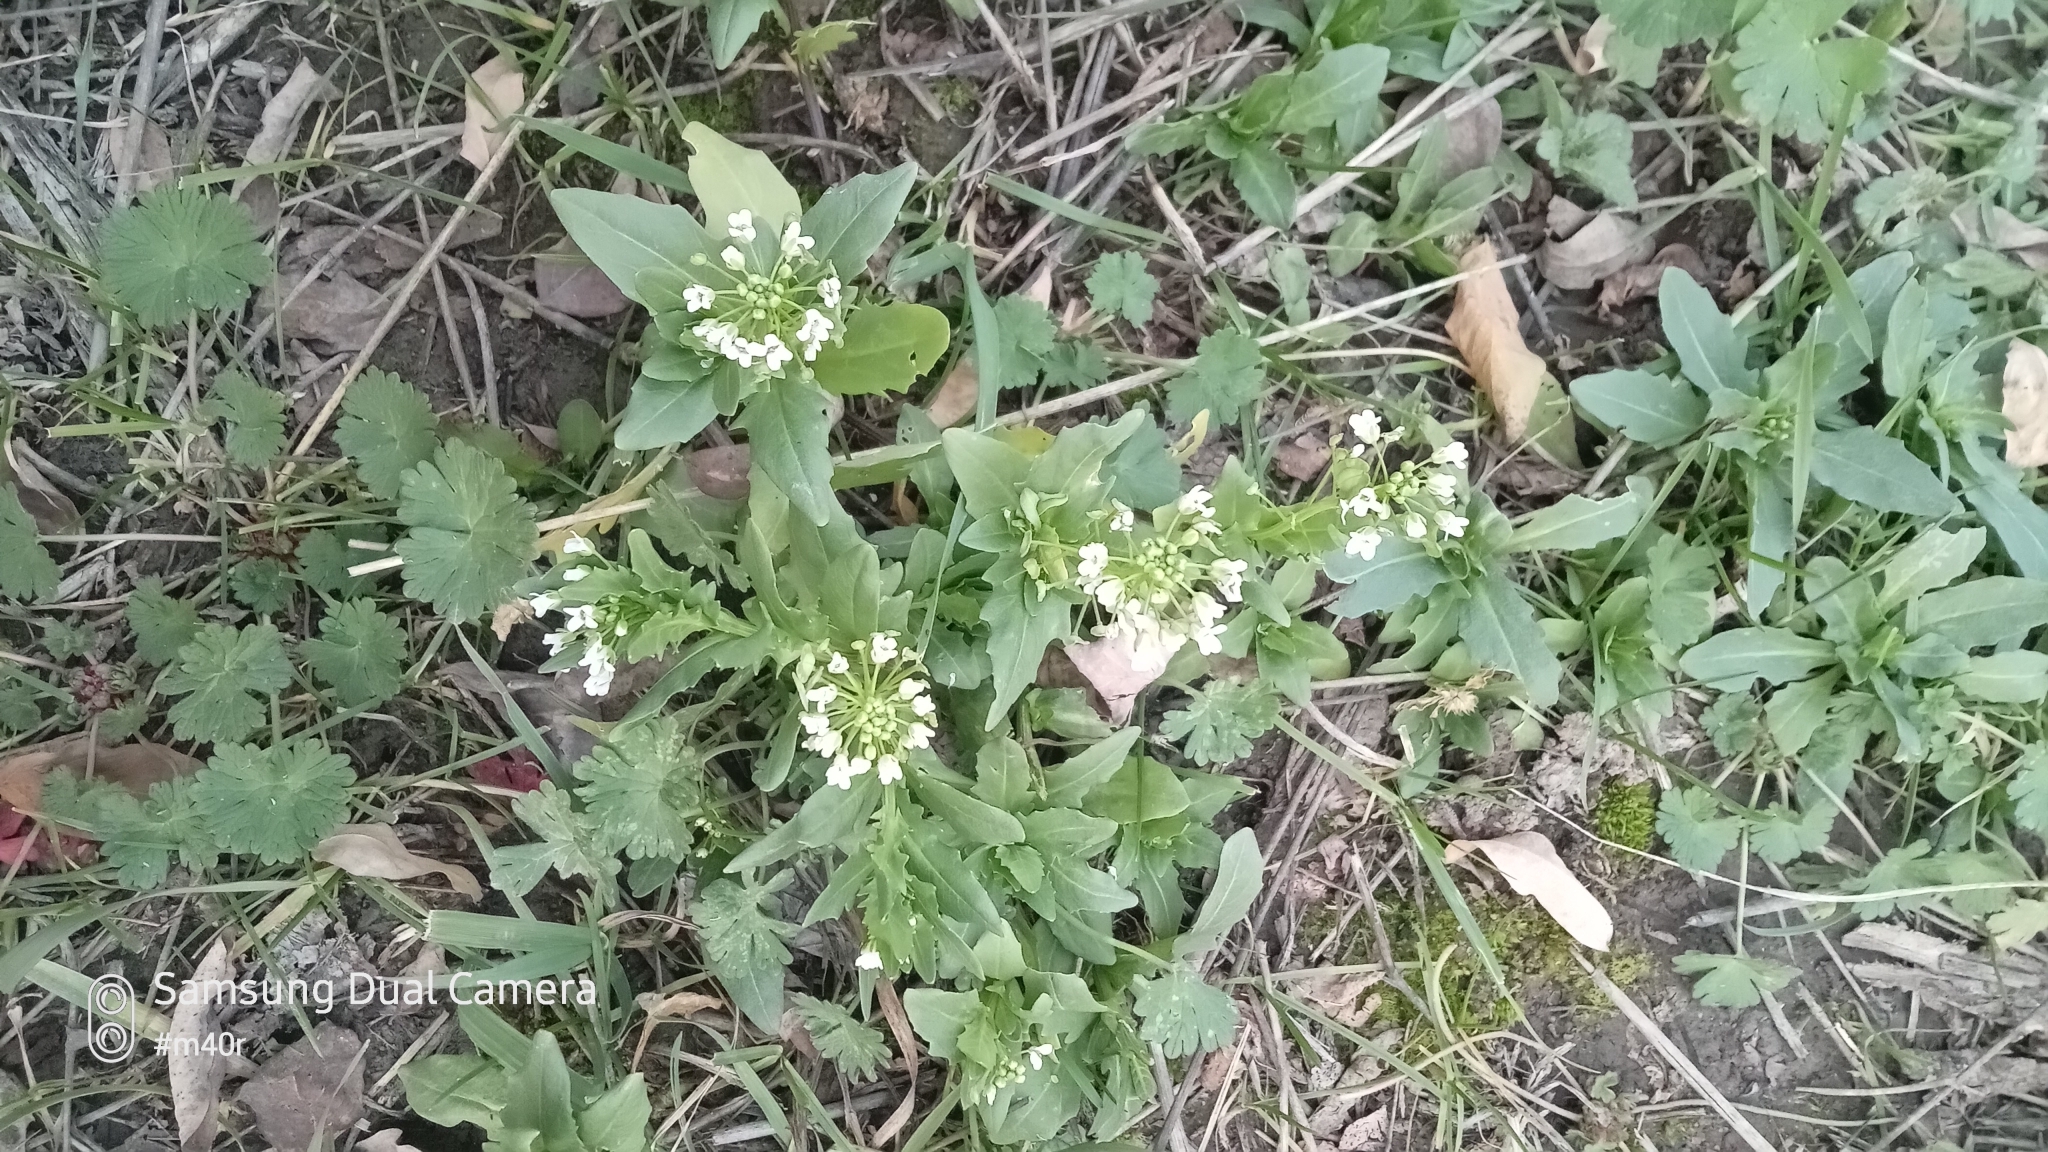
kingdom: Plantae
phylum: Tracheophyta
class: Magnoliopsida
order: Brassicales
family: Brassicaceae
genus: Thlaspi
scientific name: Thlaspi arvense
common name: Field pennycress
